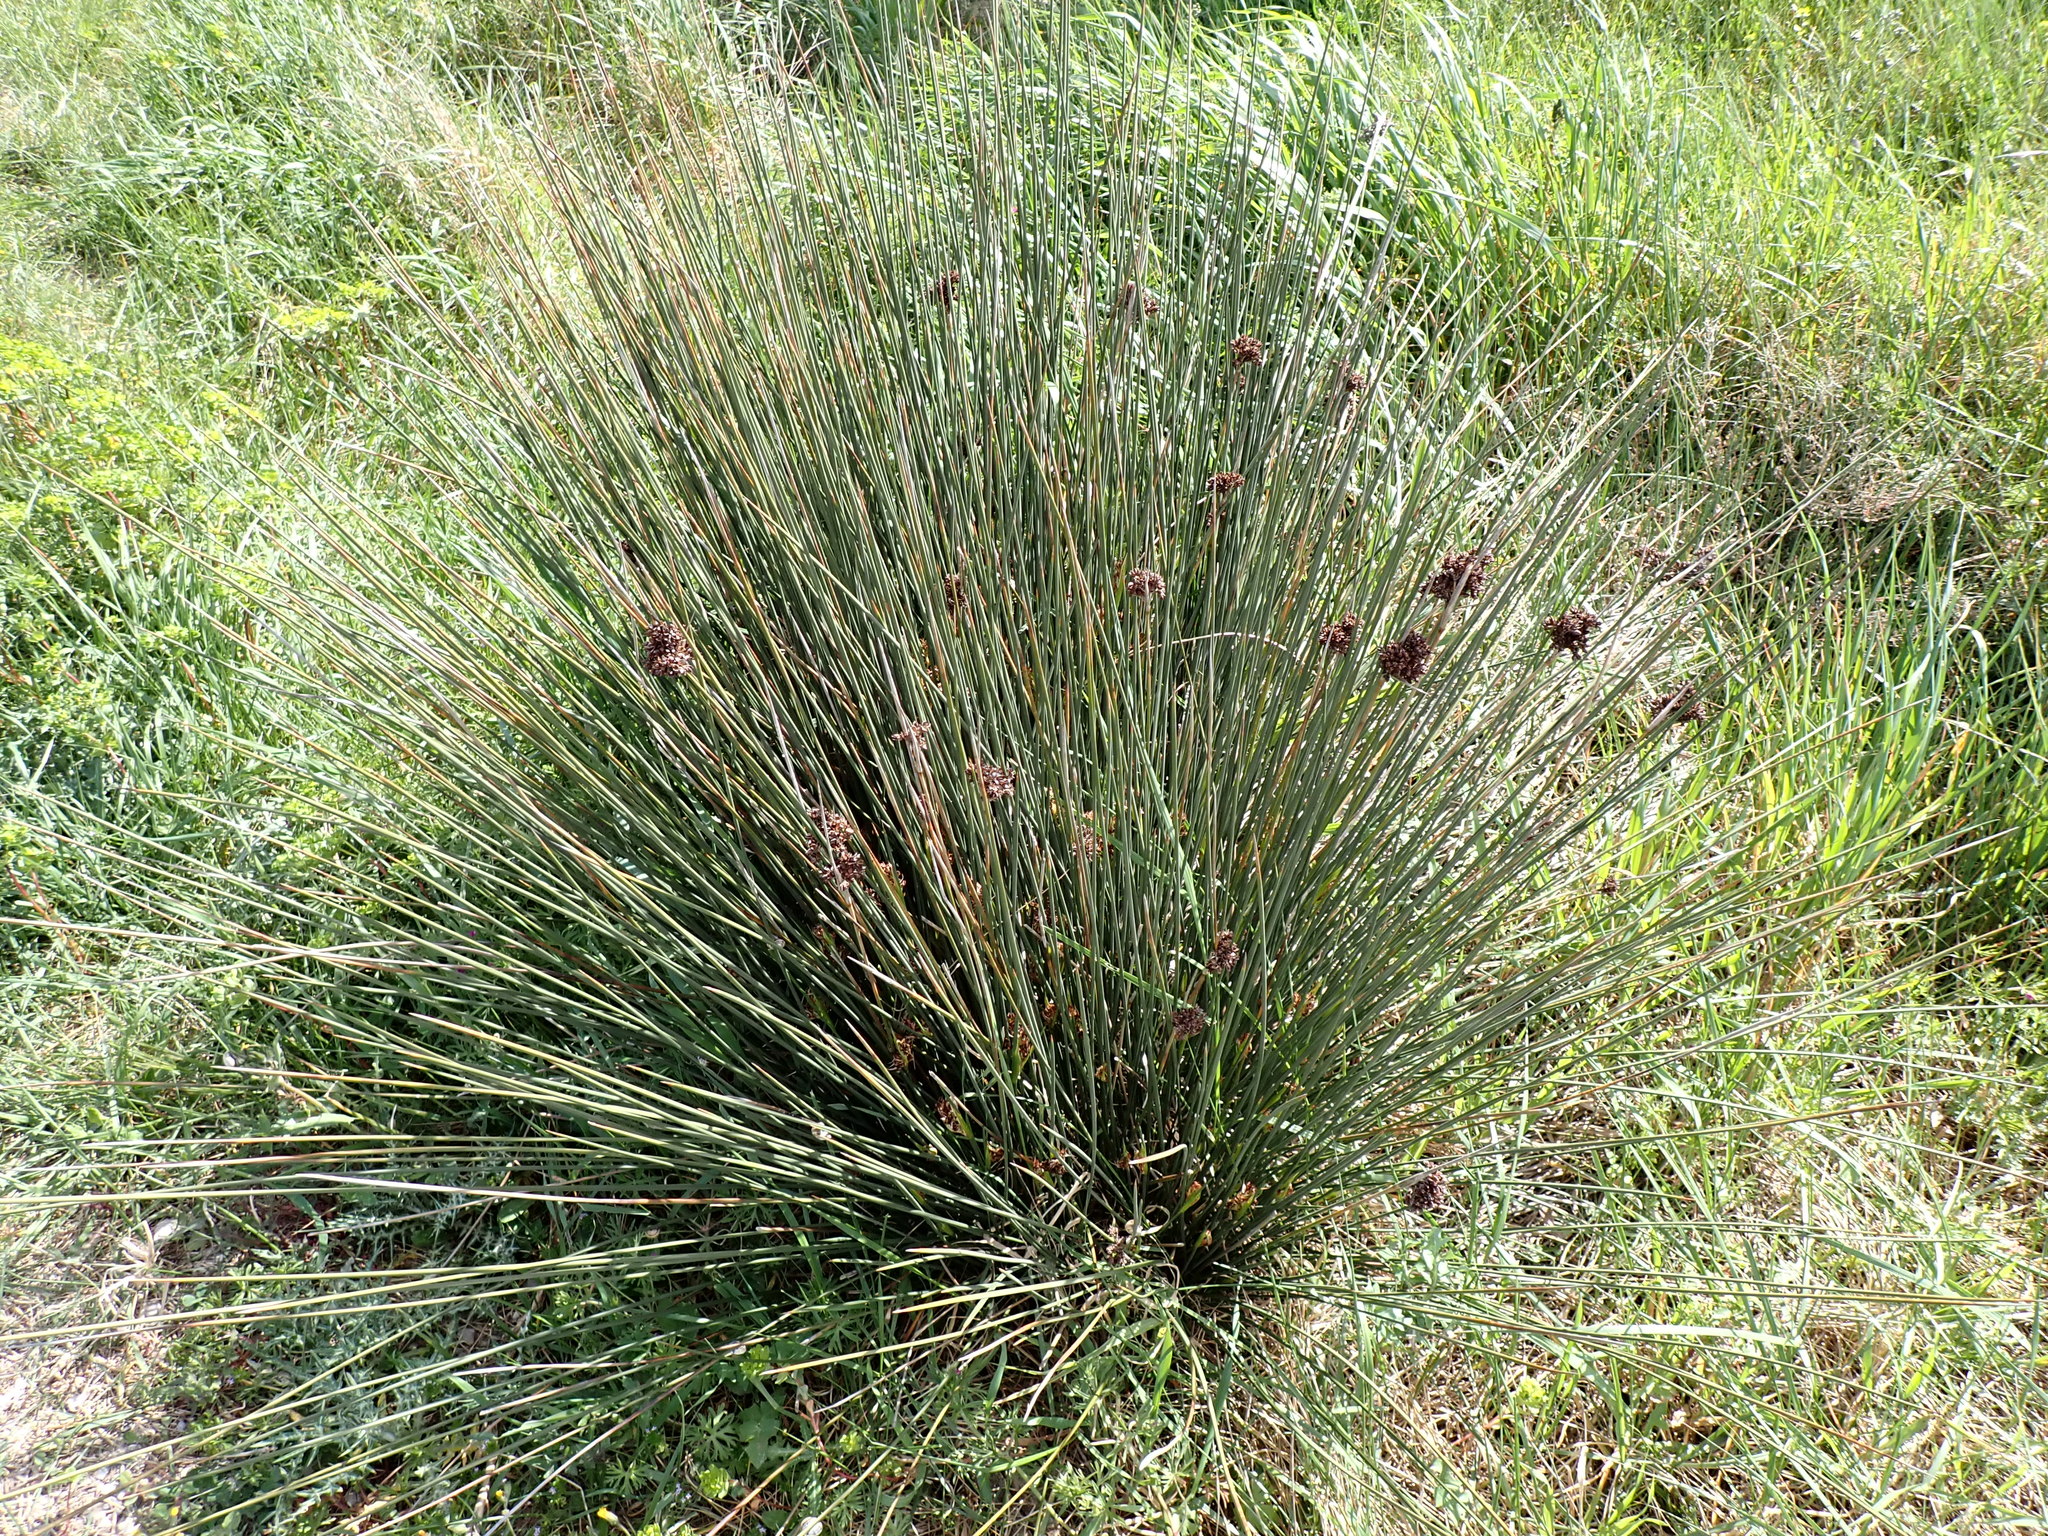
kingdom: Plantae
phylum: Tracheophyta
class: Liliopsida
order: Poales
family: Juncaceae
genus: Juncus
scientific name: Juncus acutus
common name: Sharp rush
